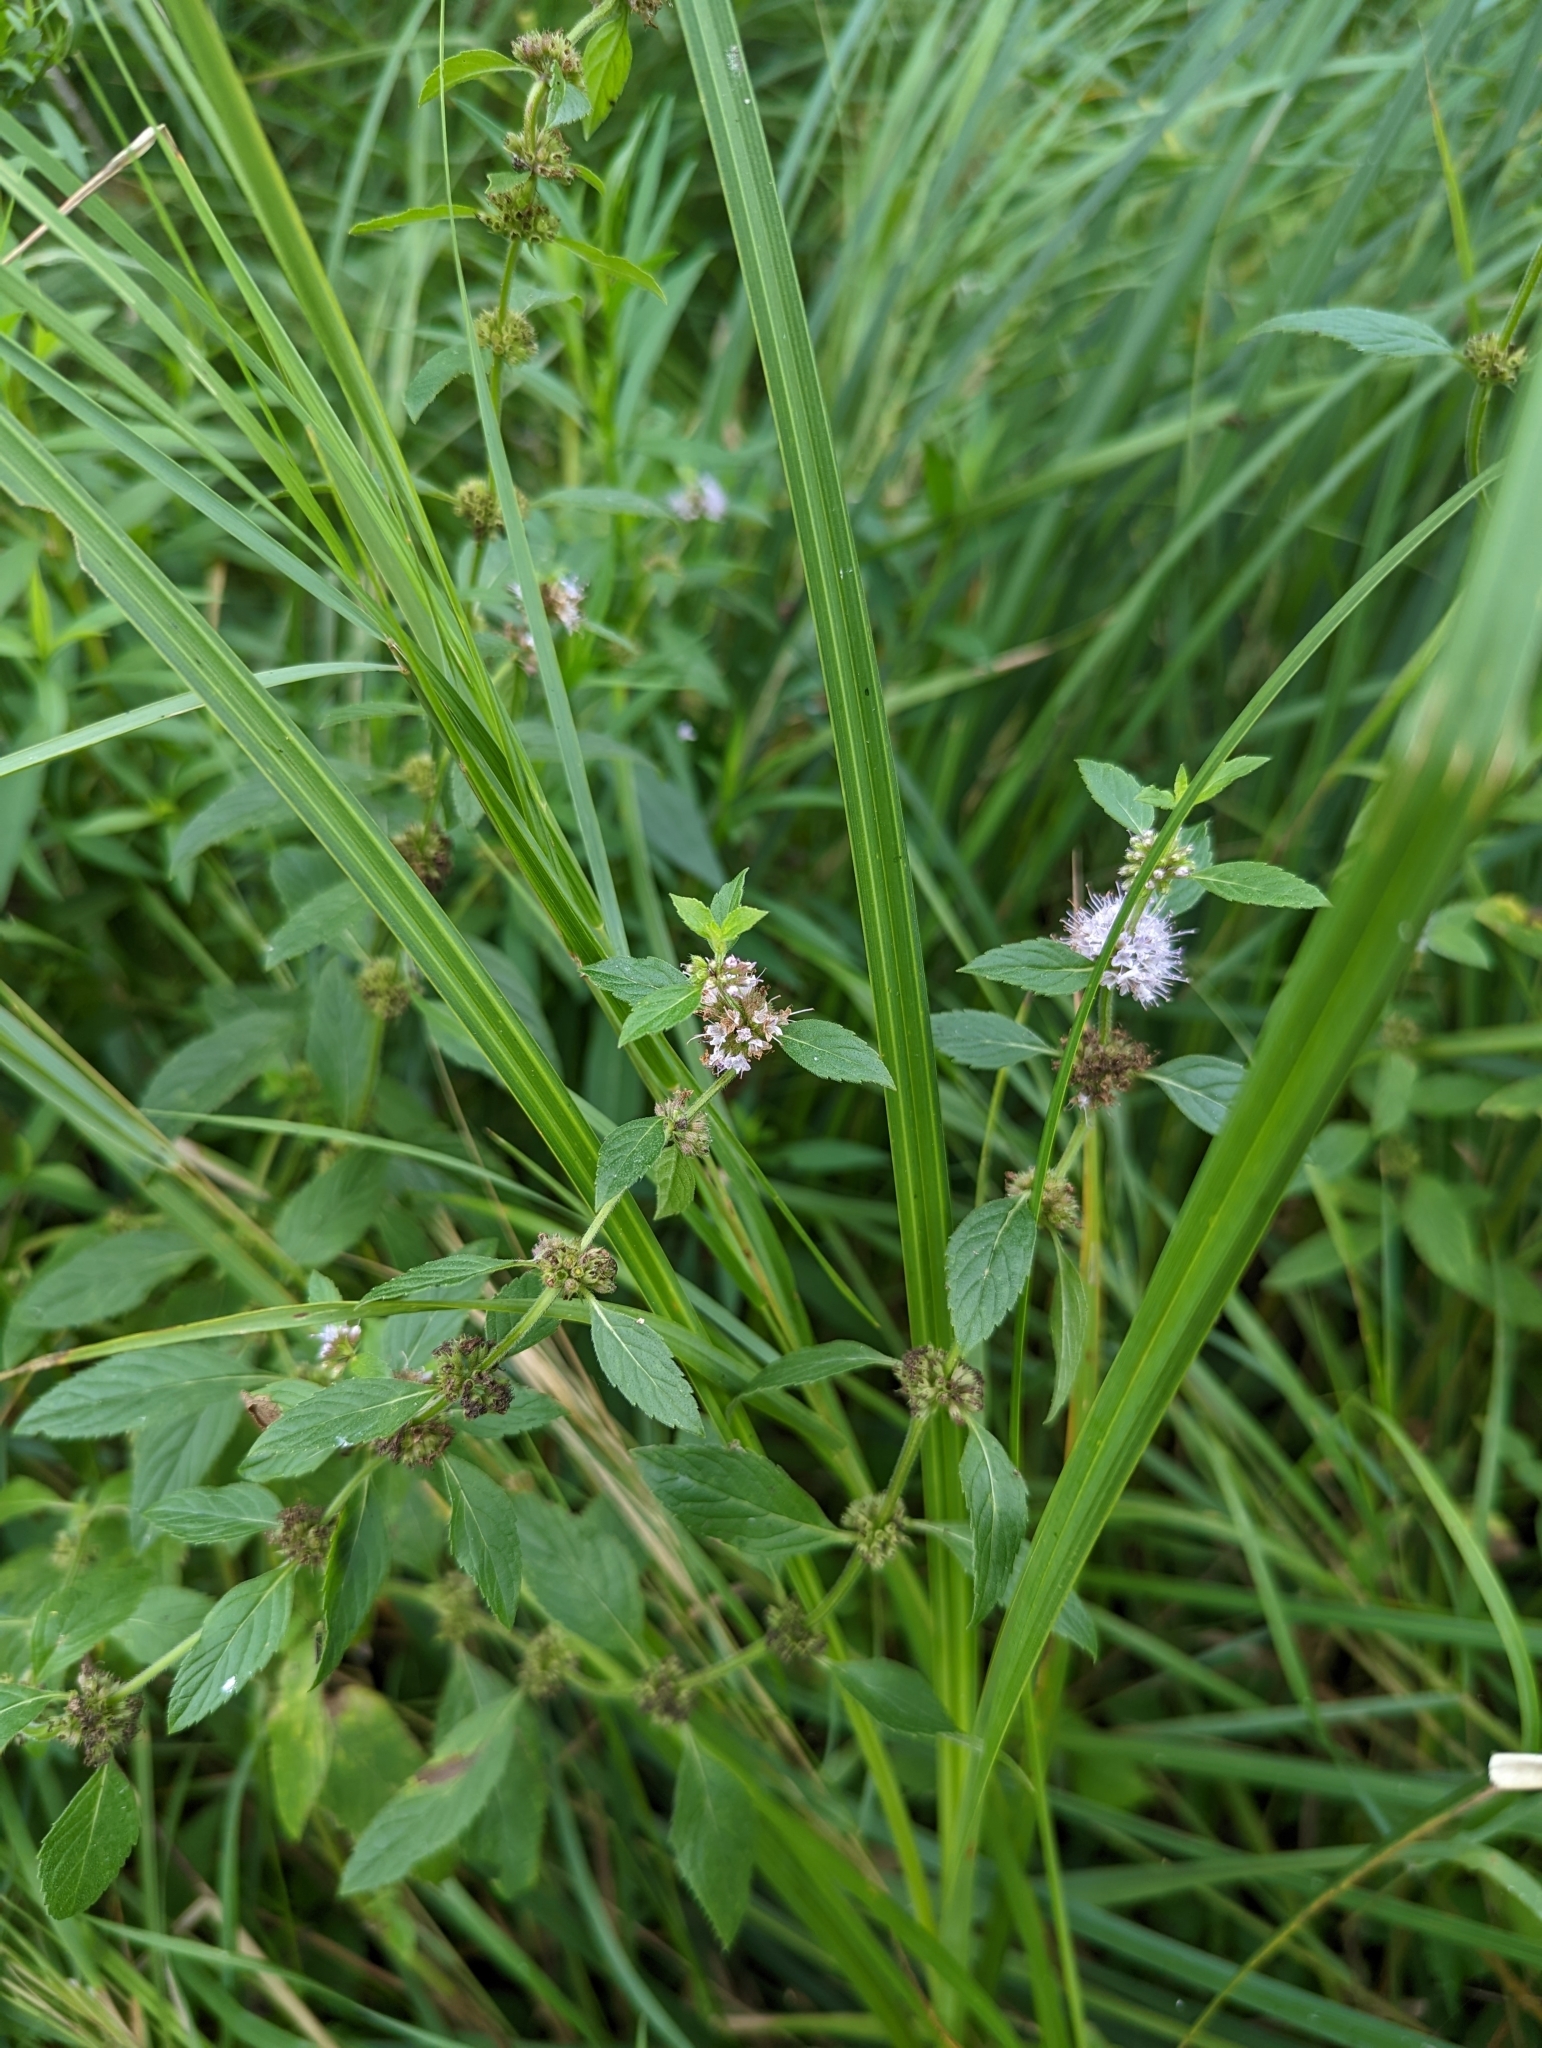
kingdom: Plantae
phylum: Tracheophyta
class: Magnoliopsida
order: Lamiales
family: Lamiaceae
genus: Mentha
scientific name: Mentha canadensis
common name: American corn mint
